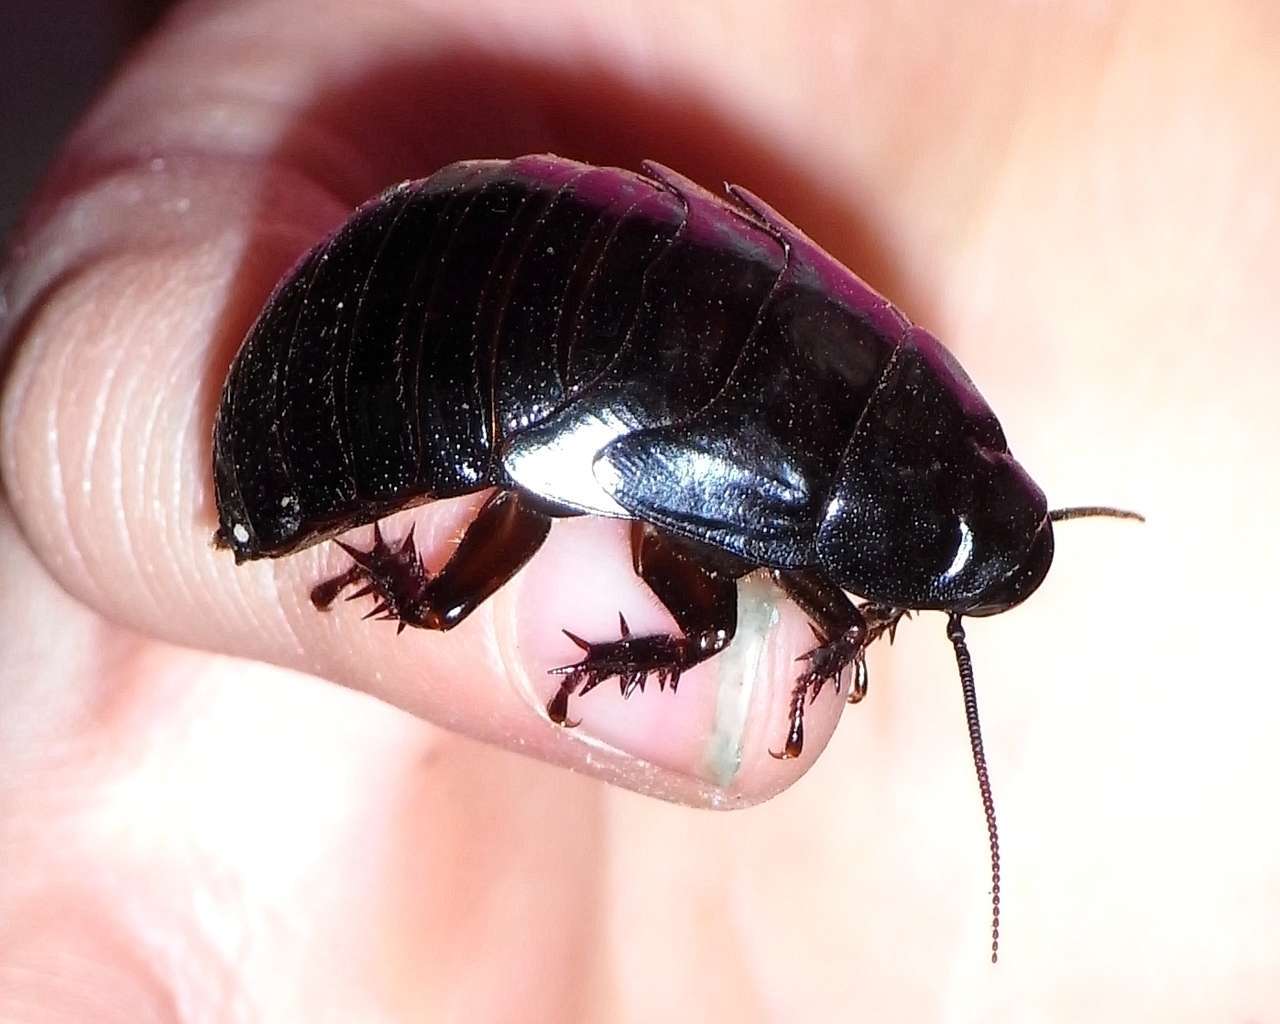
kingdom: Animalia
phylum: Arthropoda
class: Insecta
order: Blattodea
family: Blaberidae
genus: Panesthia
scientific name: Panesthia australis
